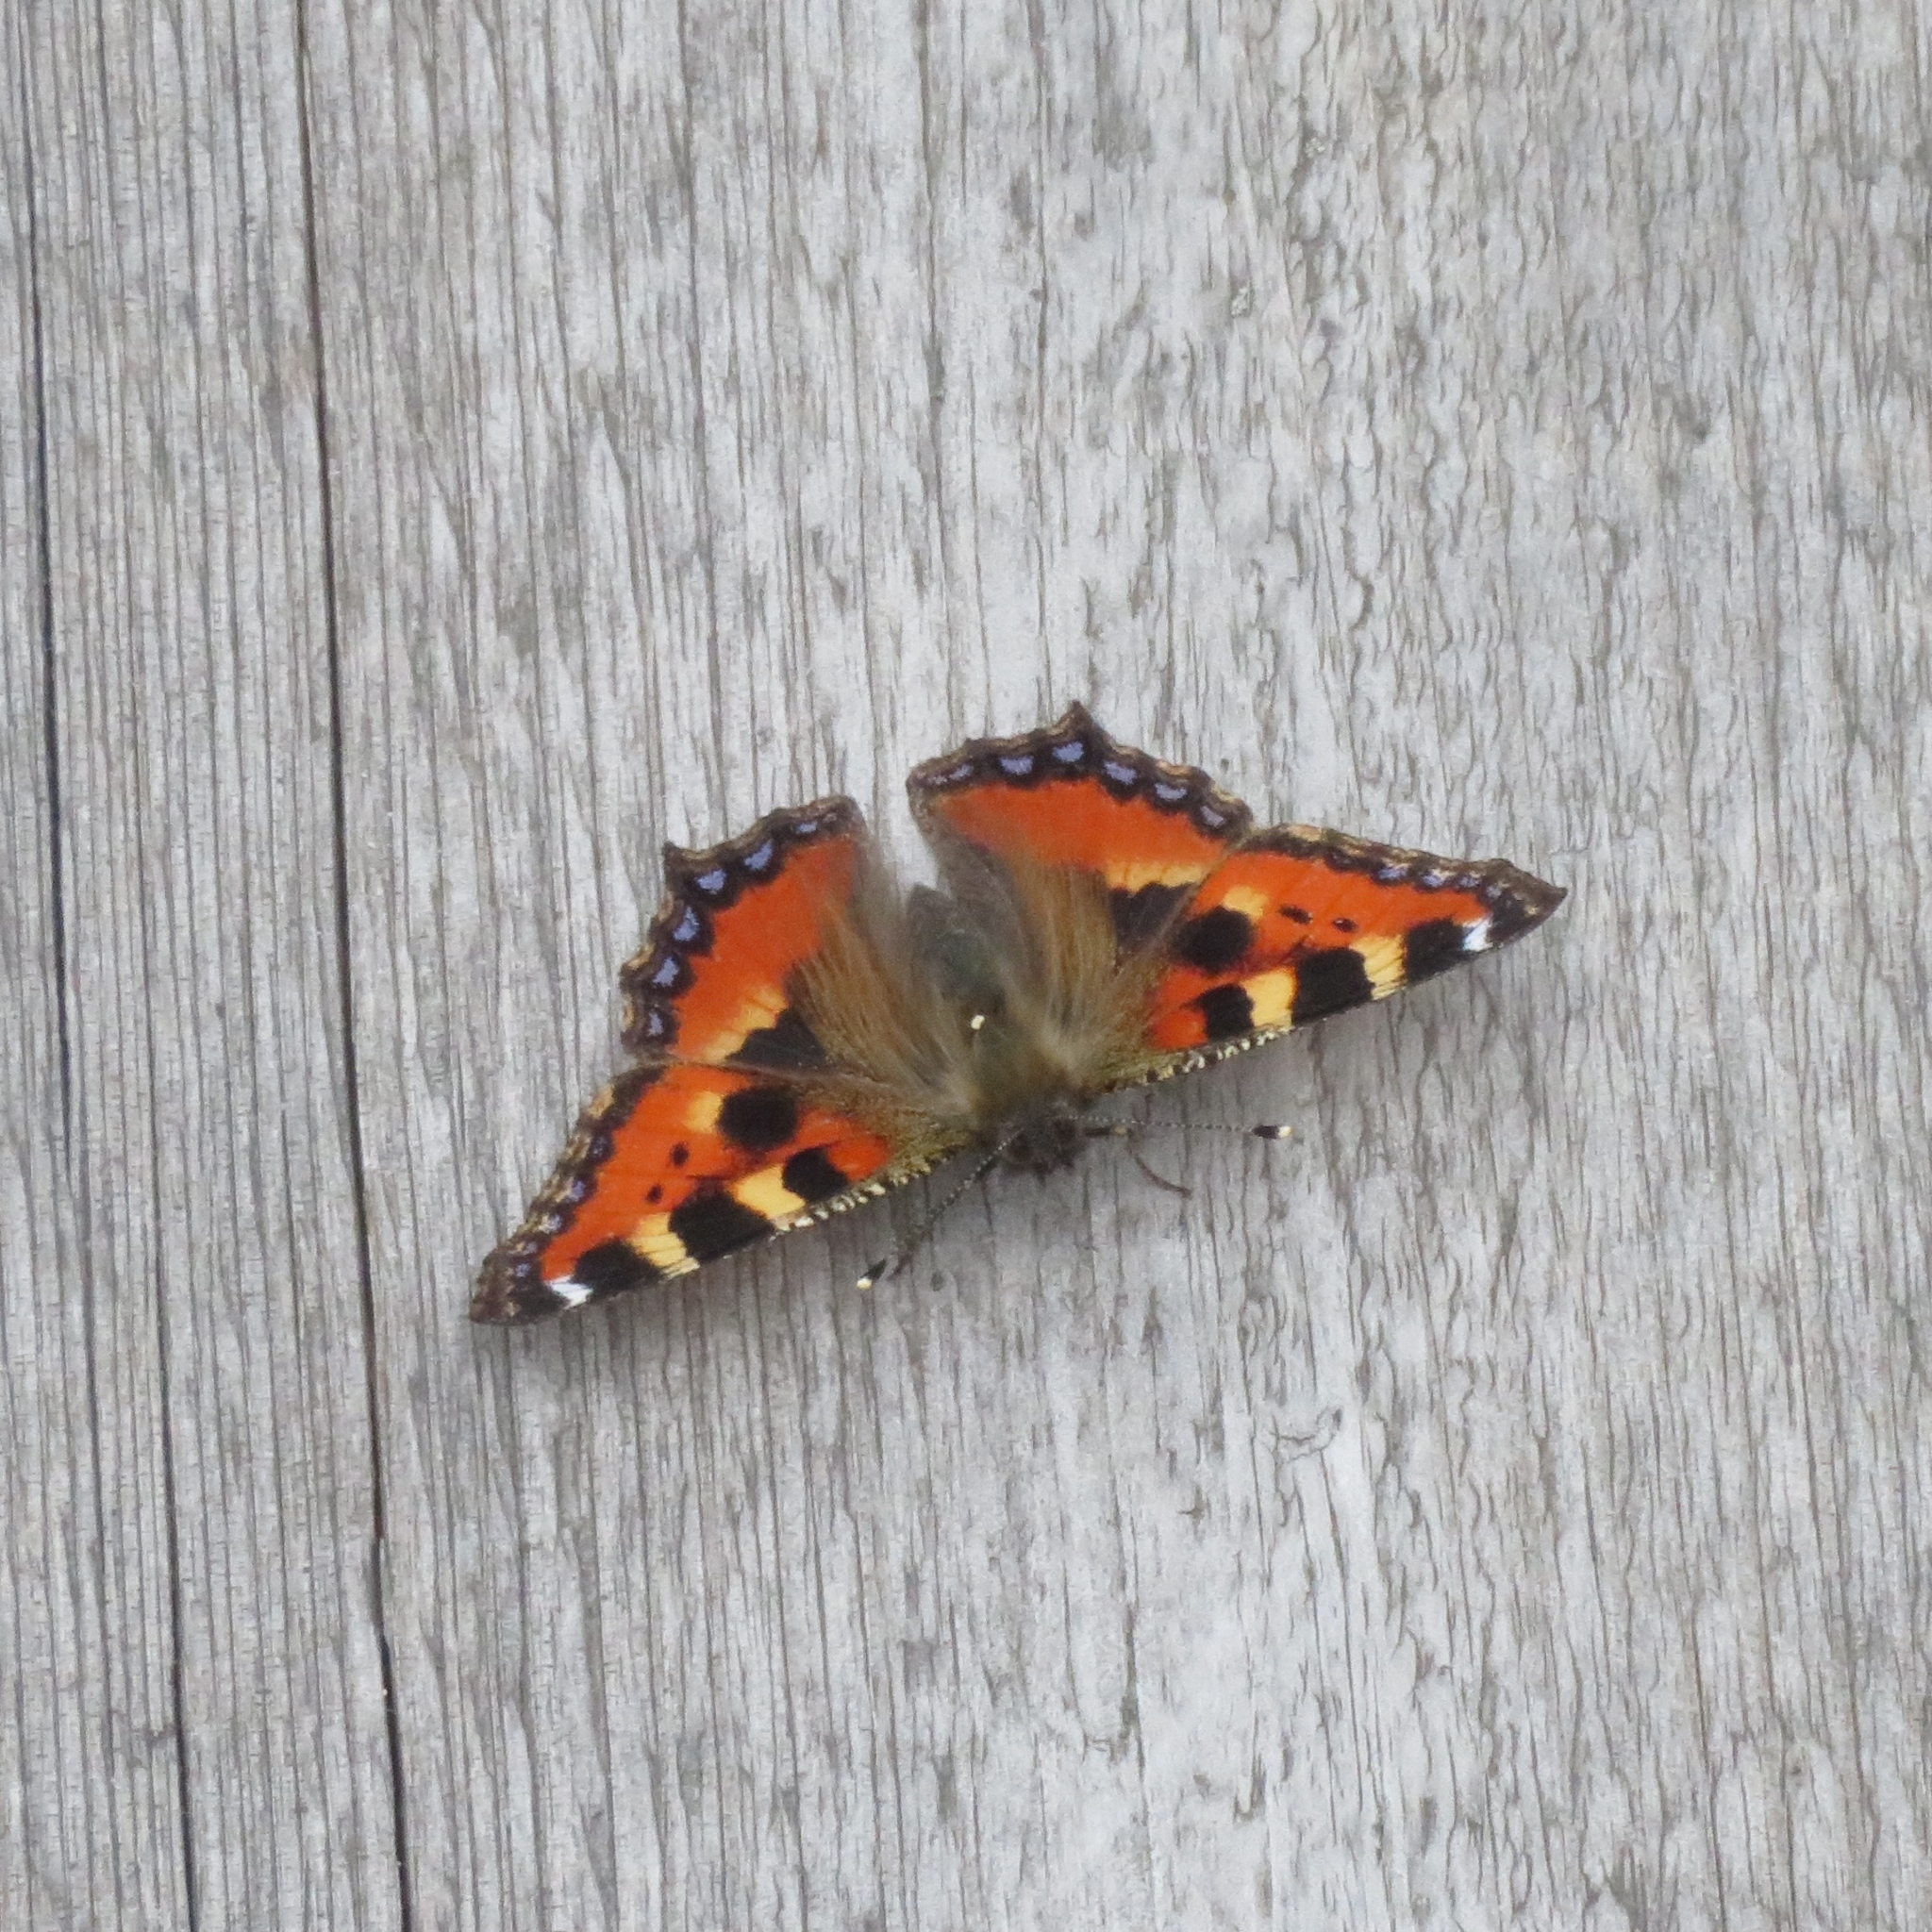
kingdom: Animalia
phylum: Arthropoda
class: Insecta
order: Lepidoptera
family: Nymphalidae
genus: Aglais
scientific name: Aglais urticae
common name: Small tortoiseshell
